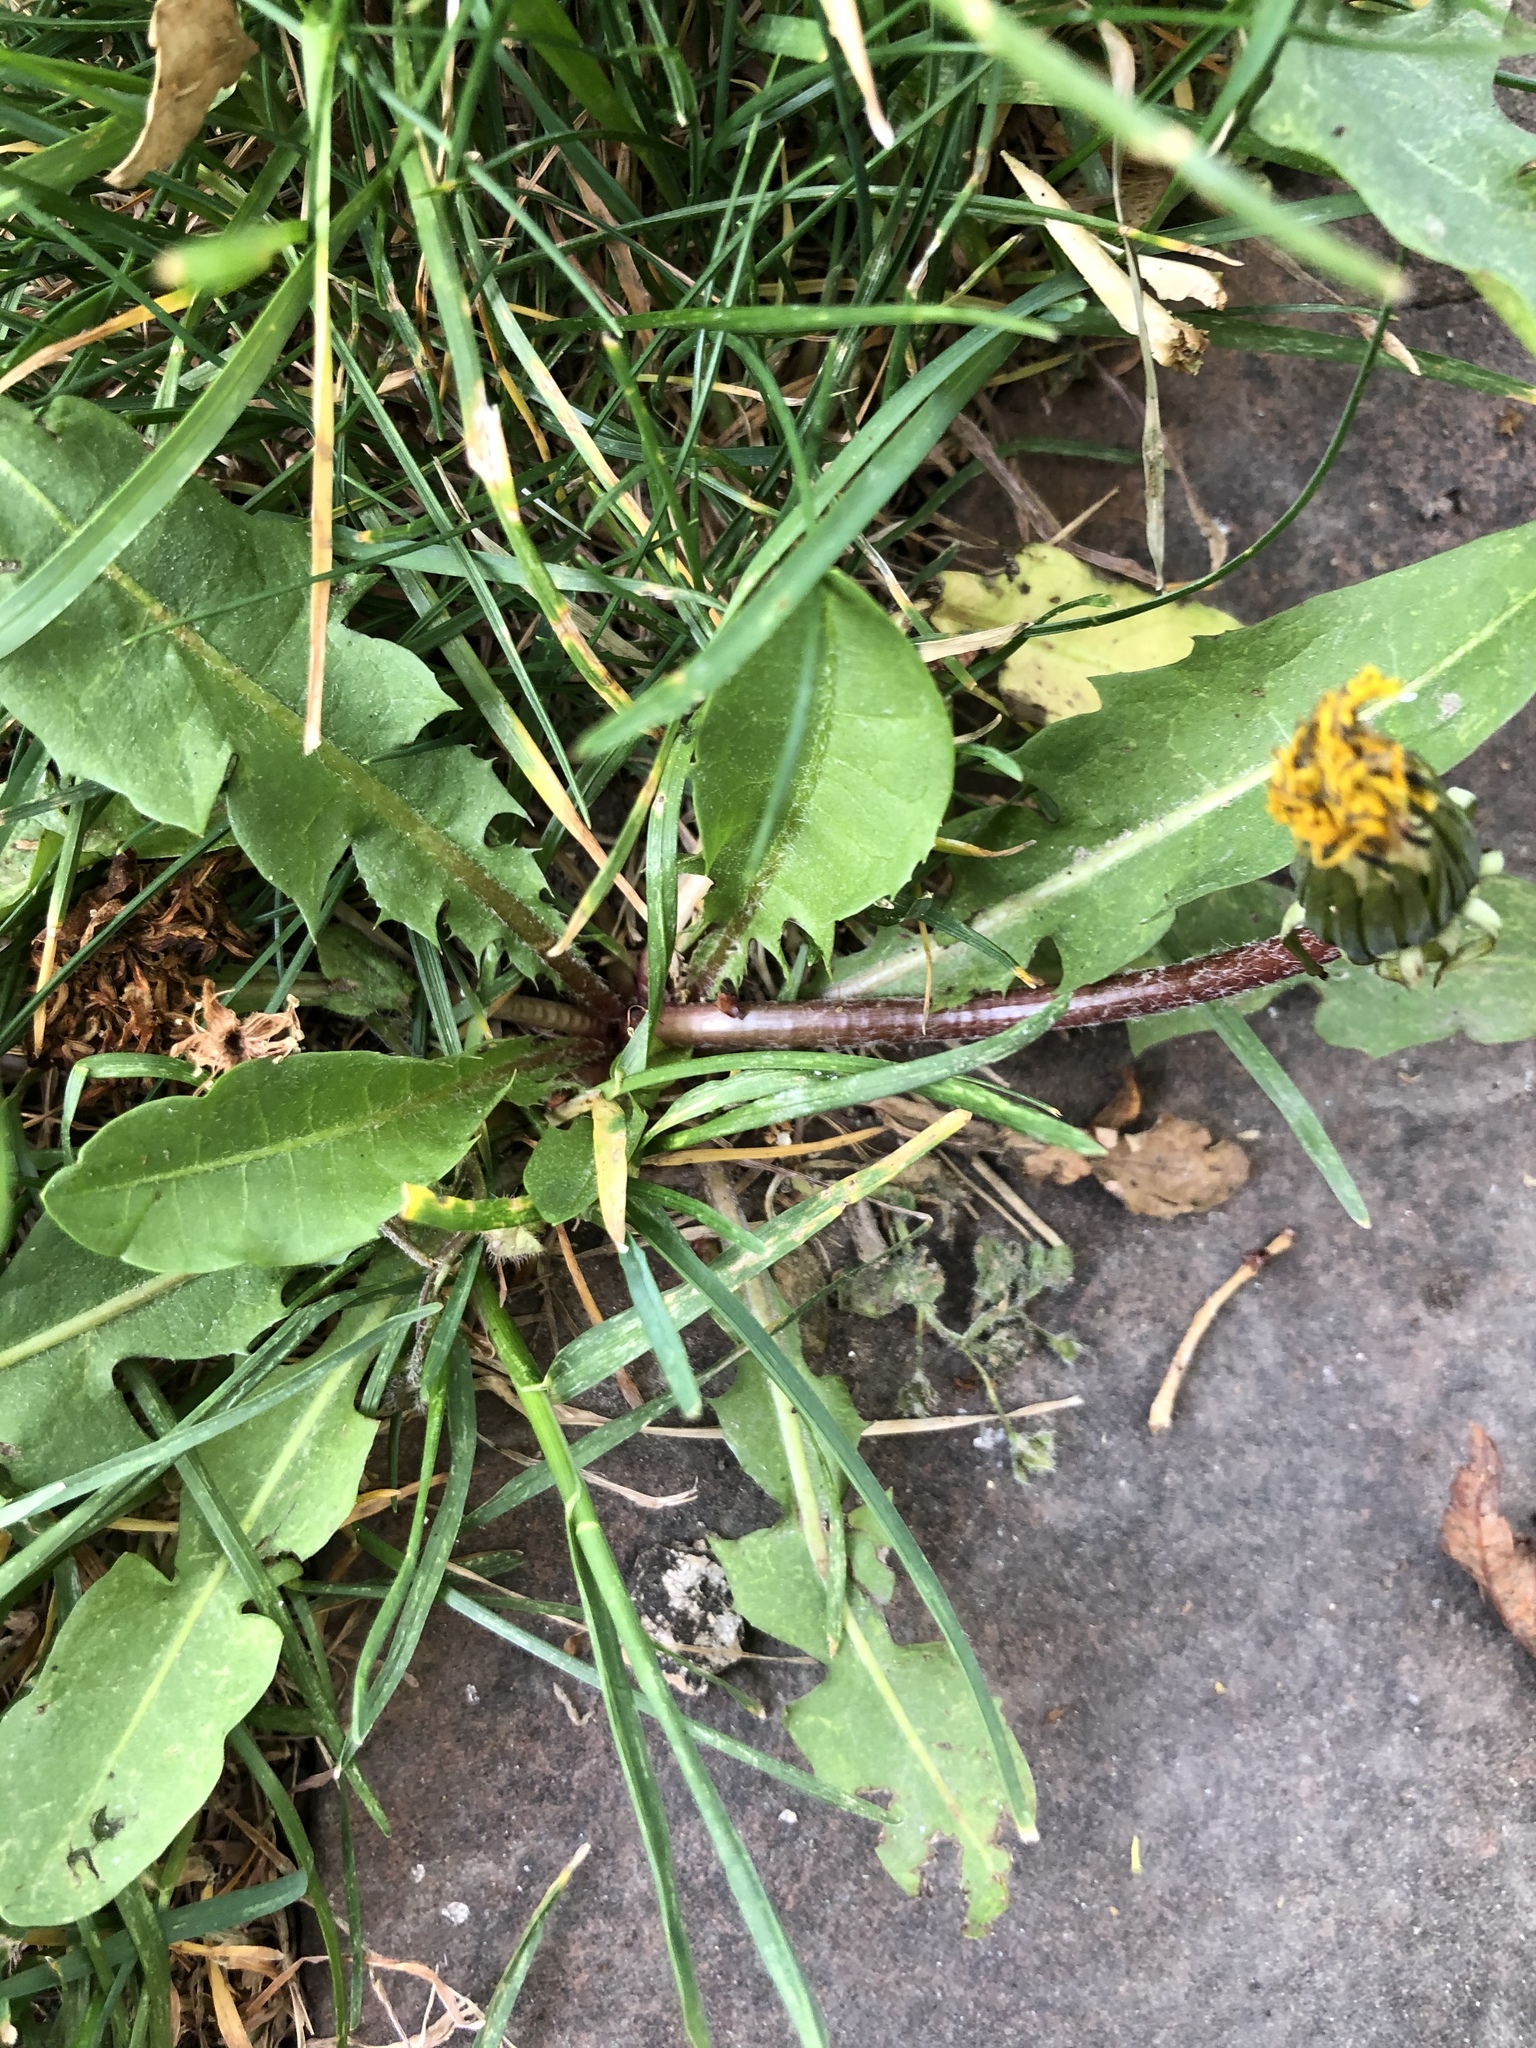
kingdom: Plantae
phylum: Tracheophyta
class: Magnoliopsida
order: Asterales
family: Asteraceae
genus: Taraxacum
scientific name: Taraxacum officinale
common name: Common dandelion
